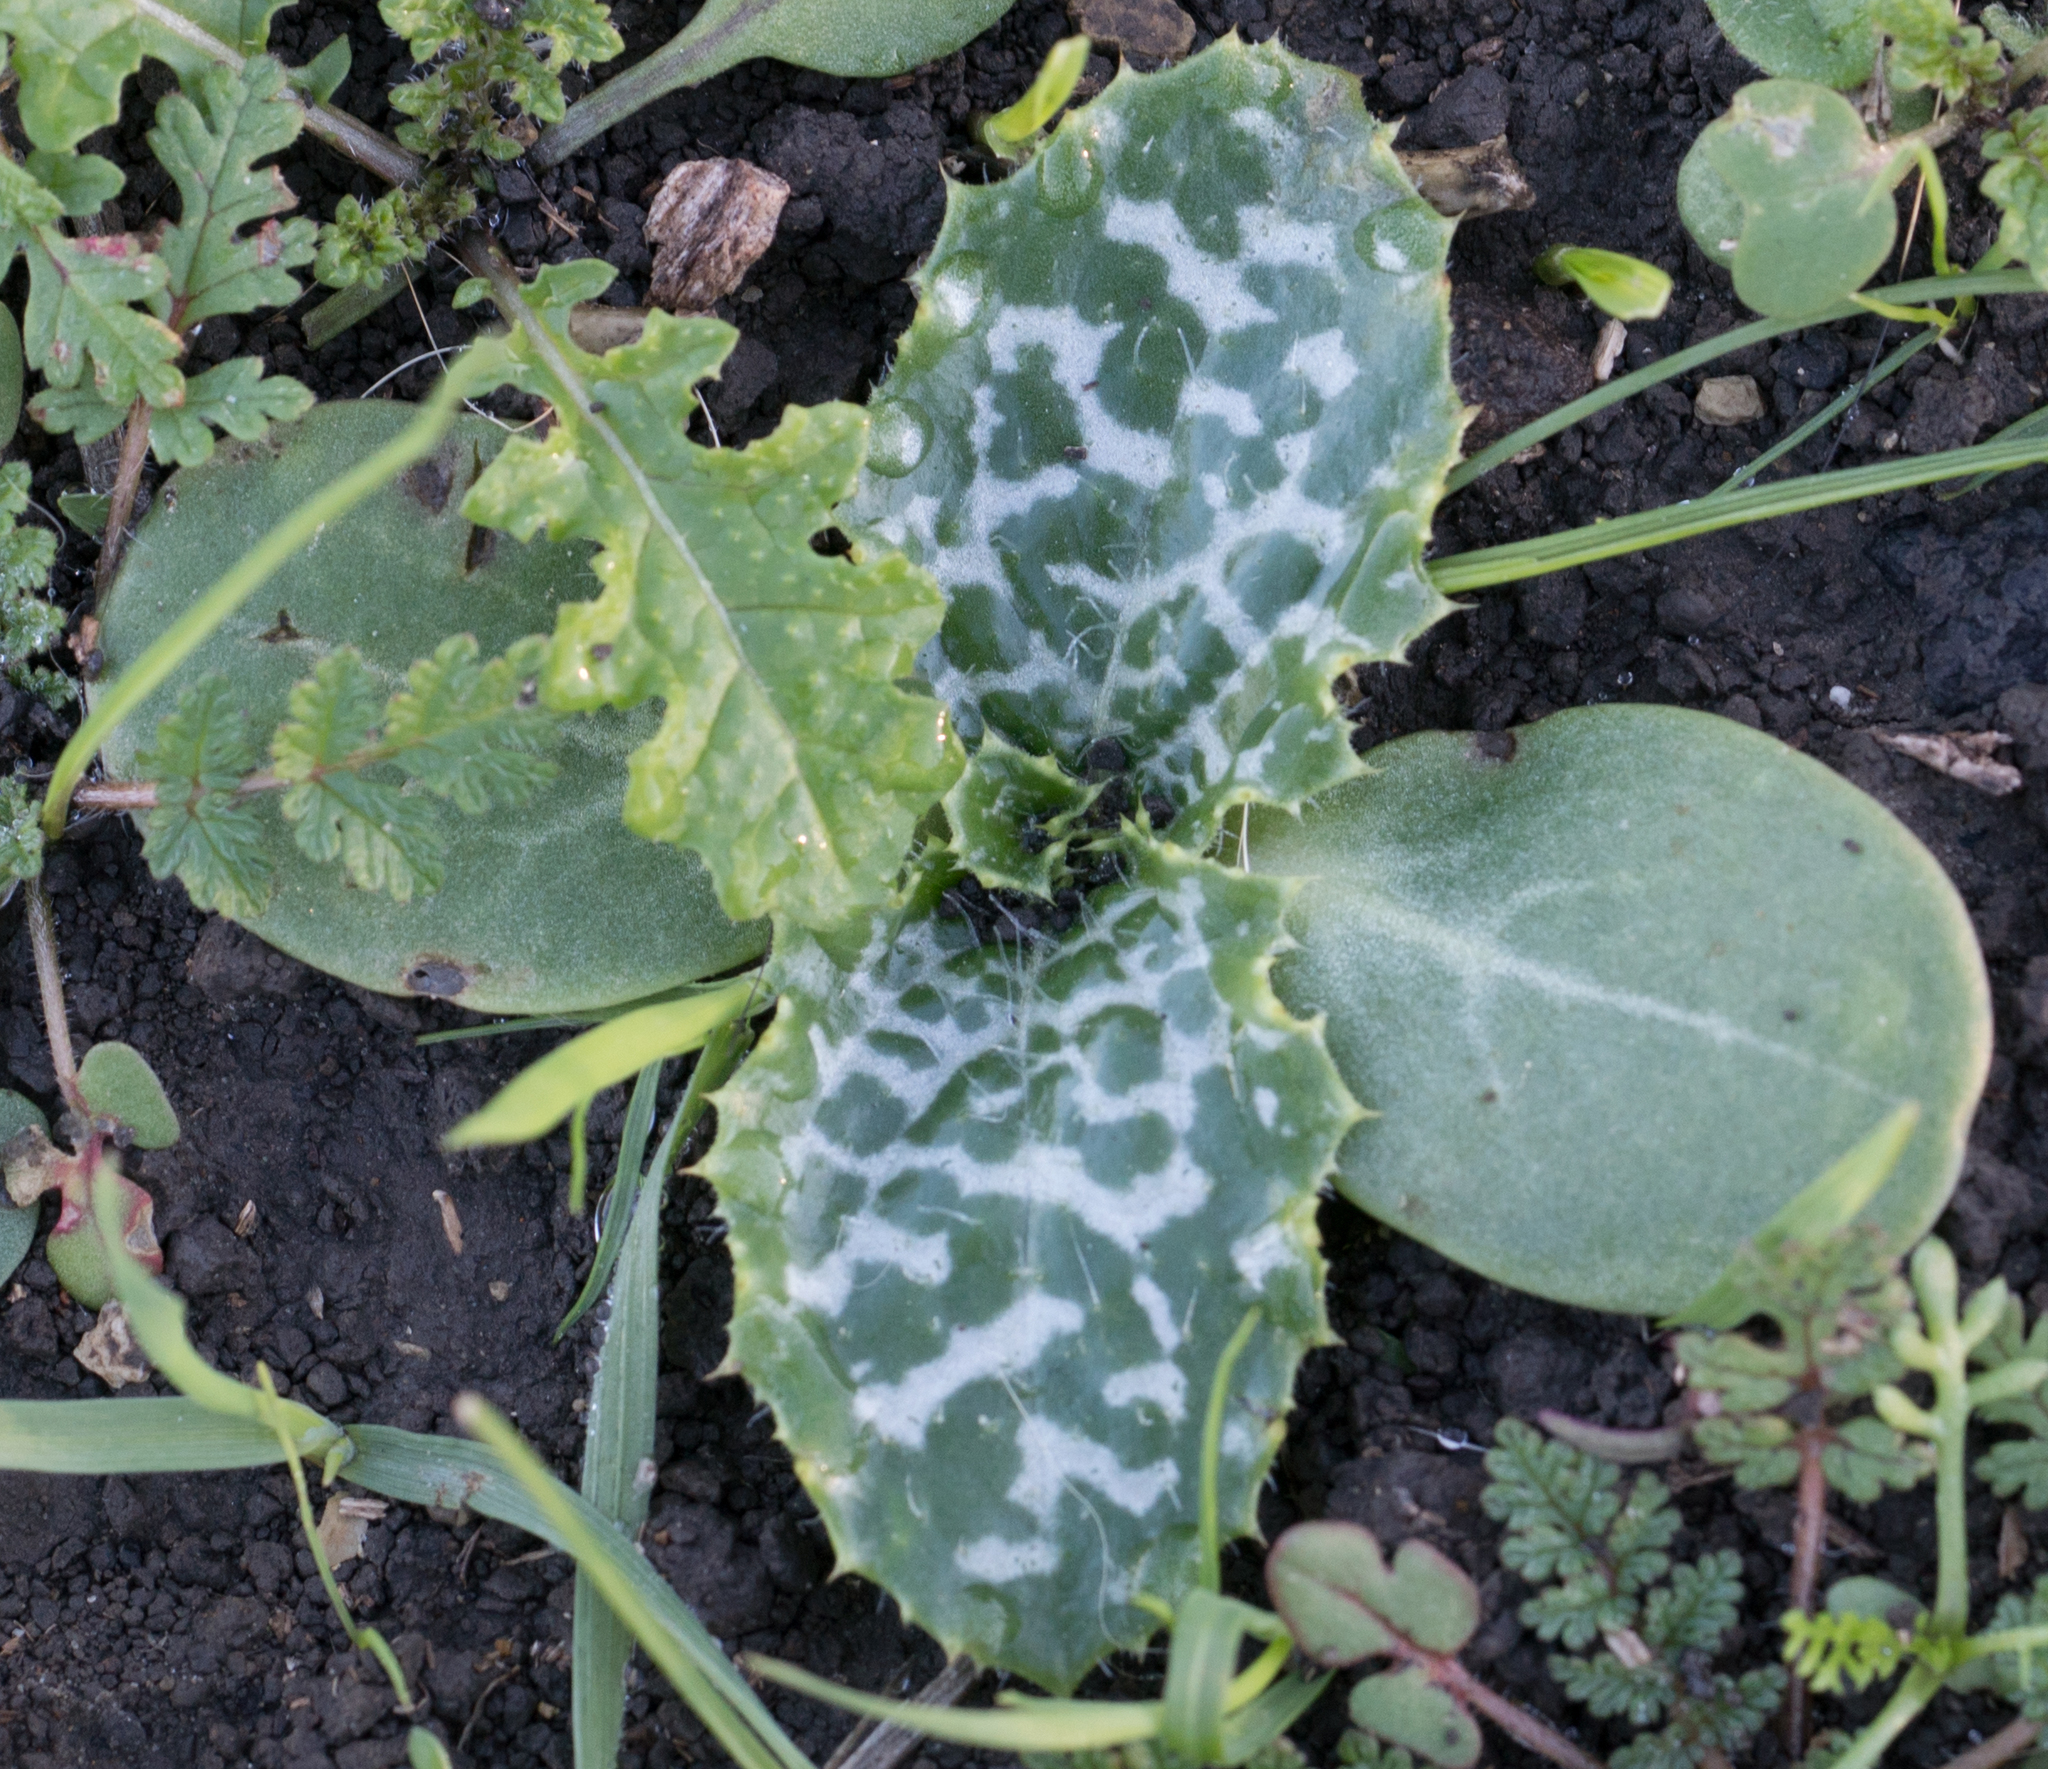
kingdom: Plantae
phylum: Tracheophyta
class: Magnoliopsida
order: Asterales
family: Asteraceae
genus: Silybum
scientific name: Silybum marianum
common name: Milk thistle
